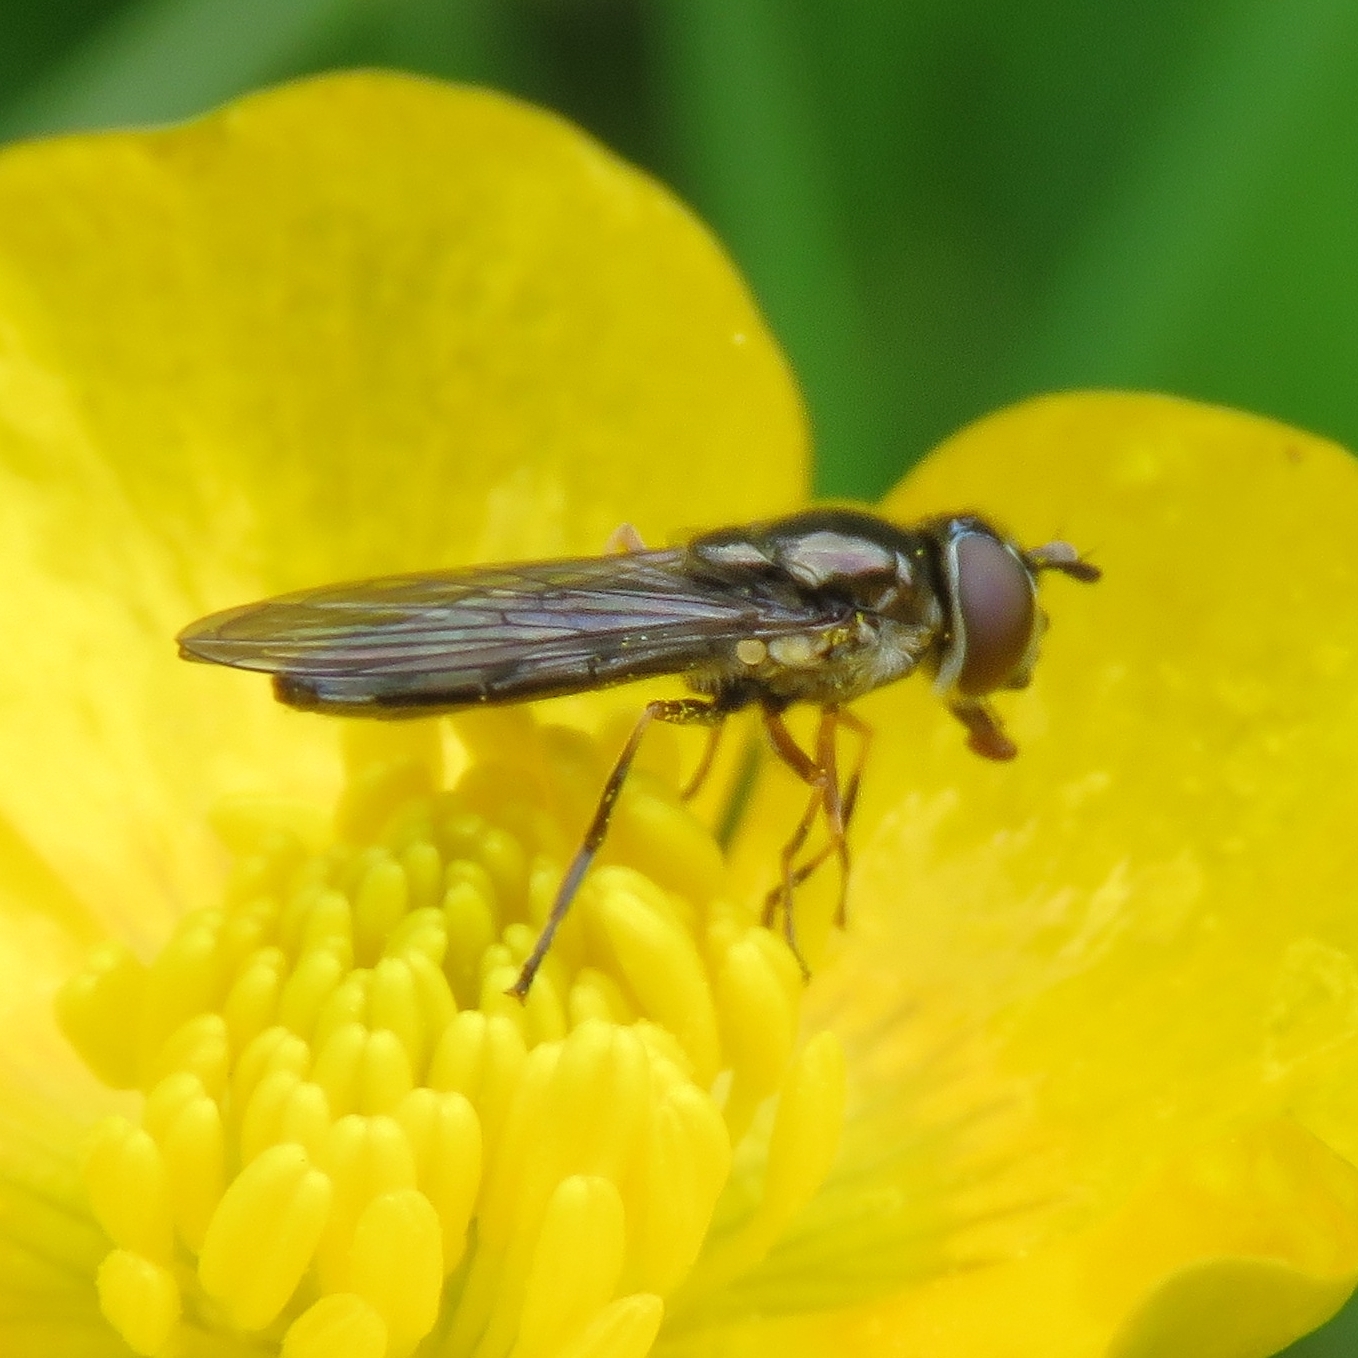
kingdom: Animalia
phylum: Arthropoda
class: Insecta
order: Diptera
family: Syrphidae
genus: Platycheirus
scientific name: Platycheirus albimanus
